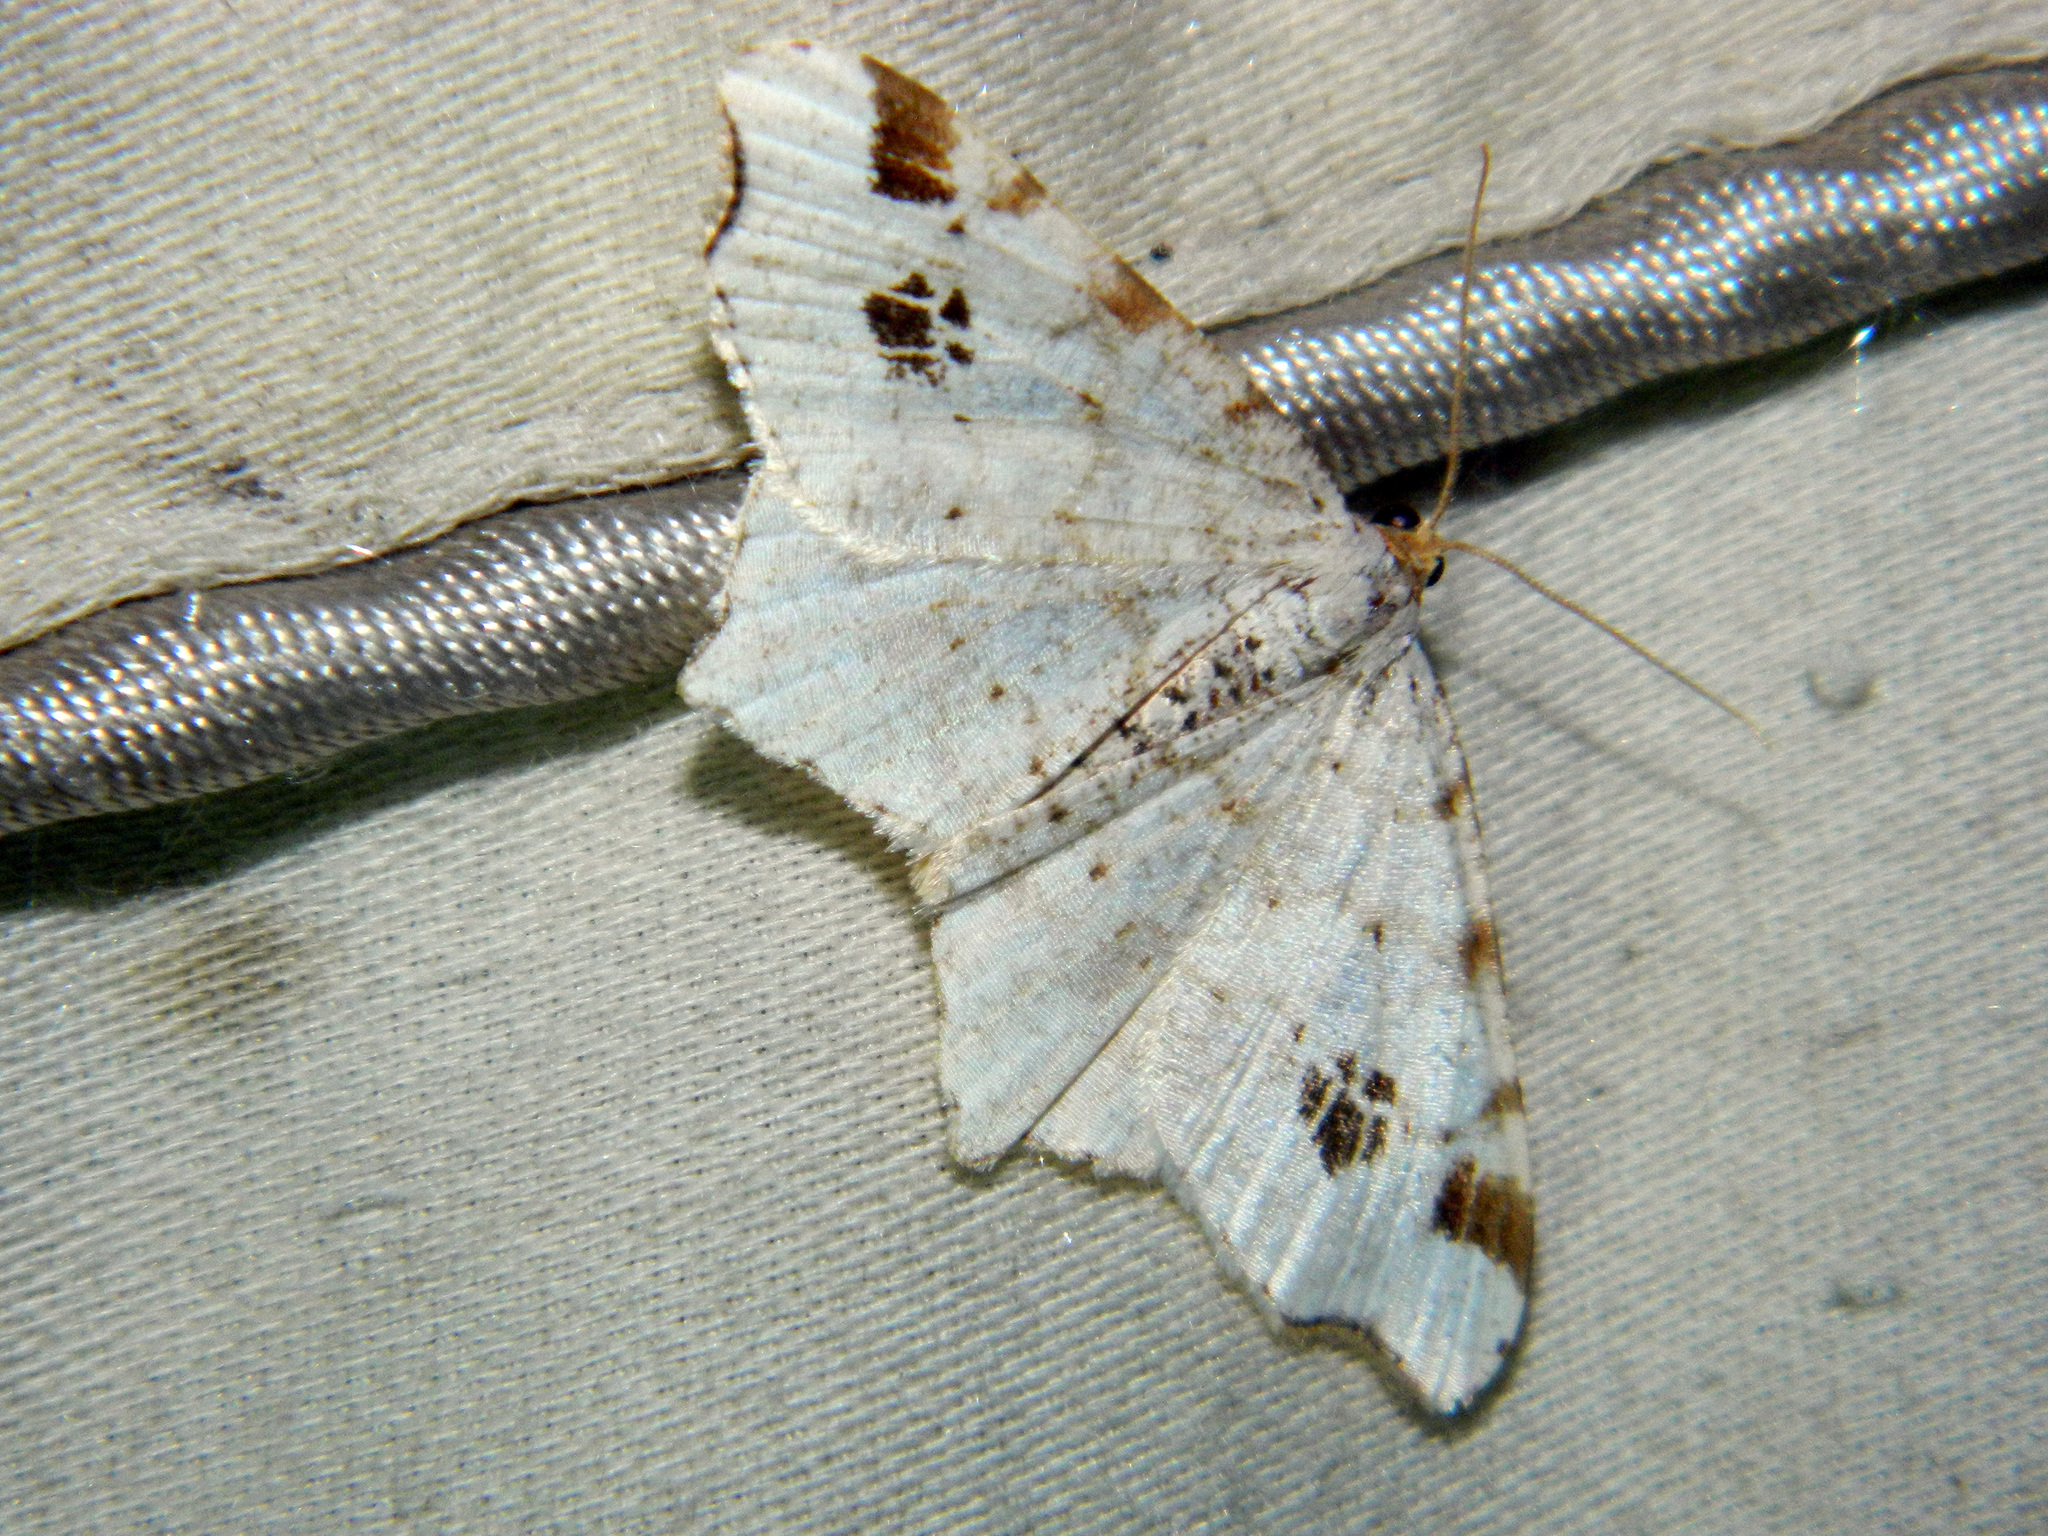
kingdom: Animalia
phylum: Arthropoda
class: Insecta
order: Lepidoptera
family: Geometridae
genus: Macaria
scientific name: Macaria ulsterata
